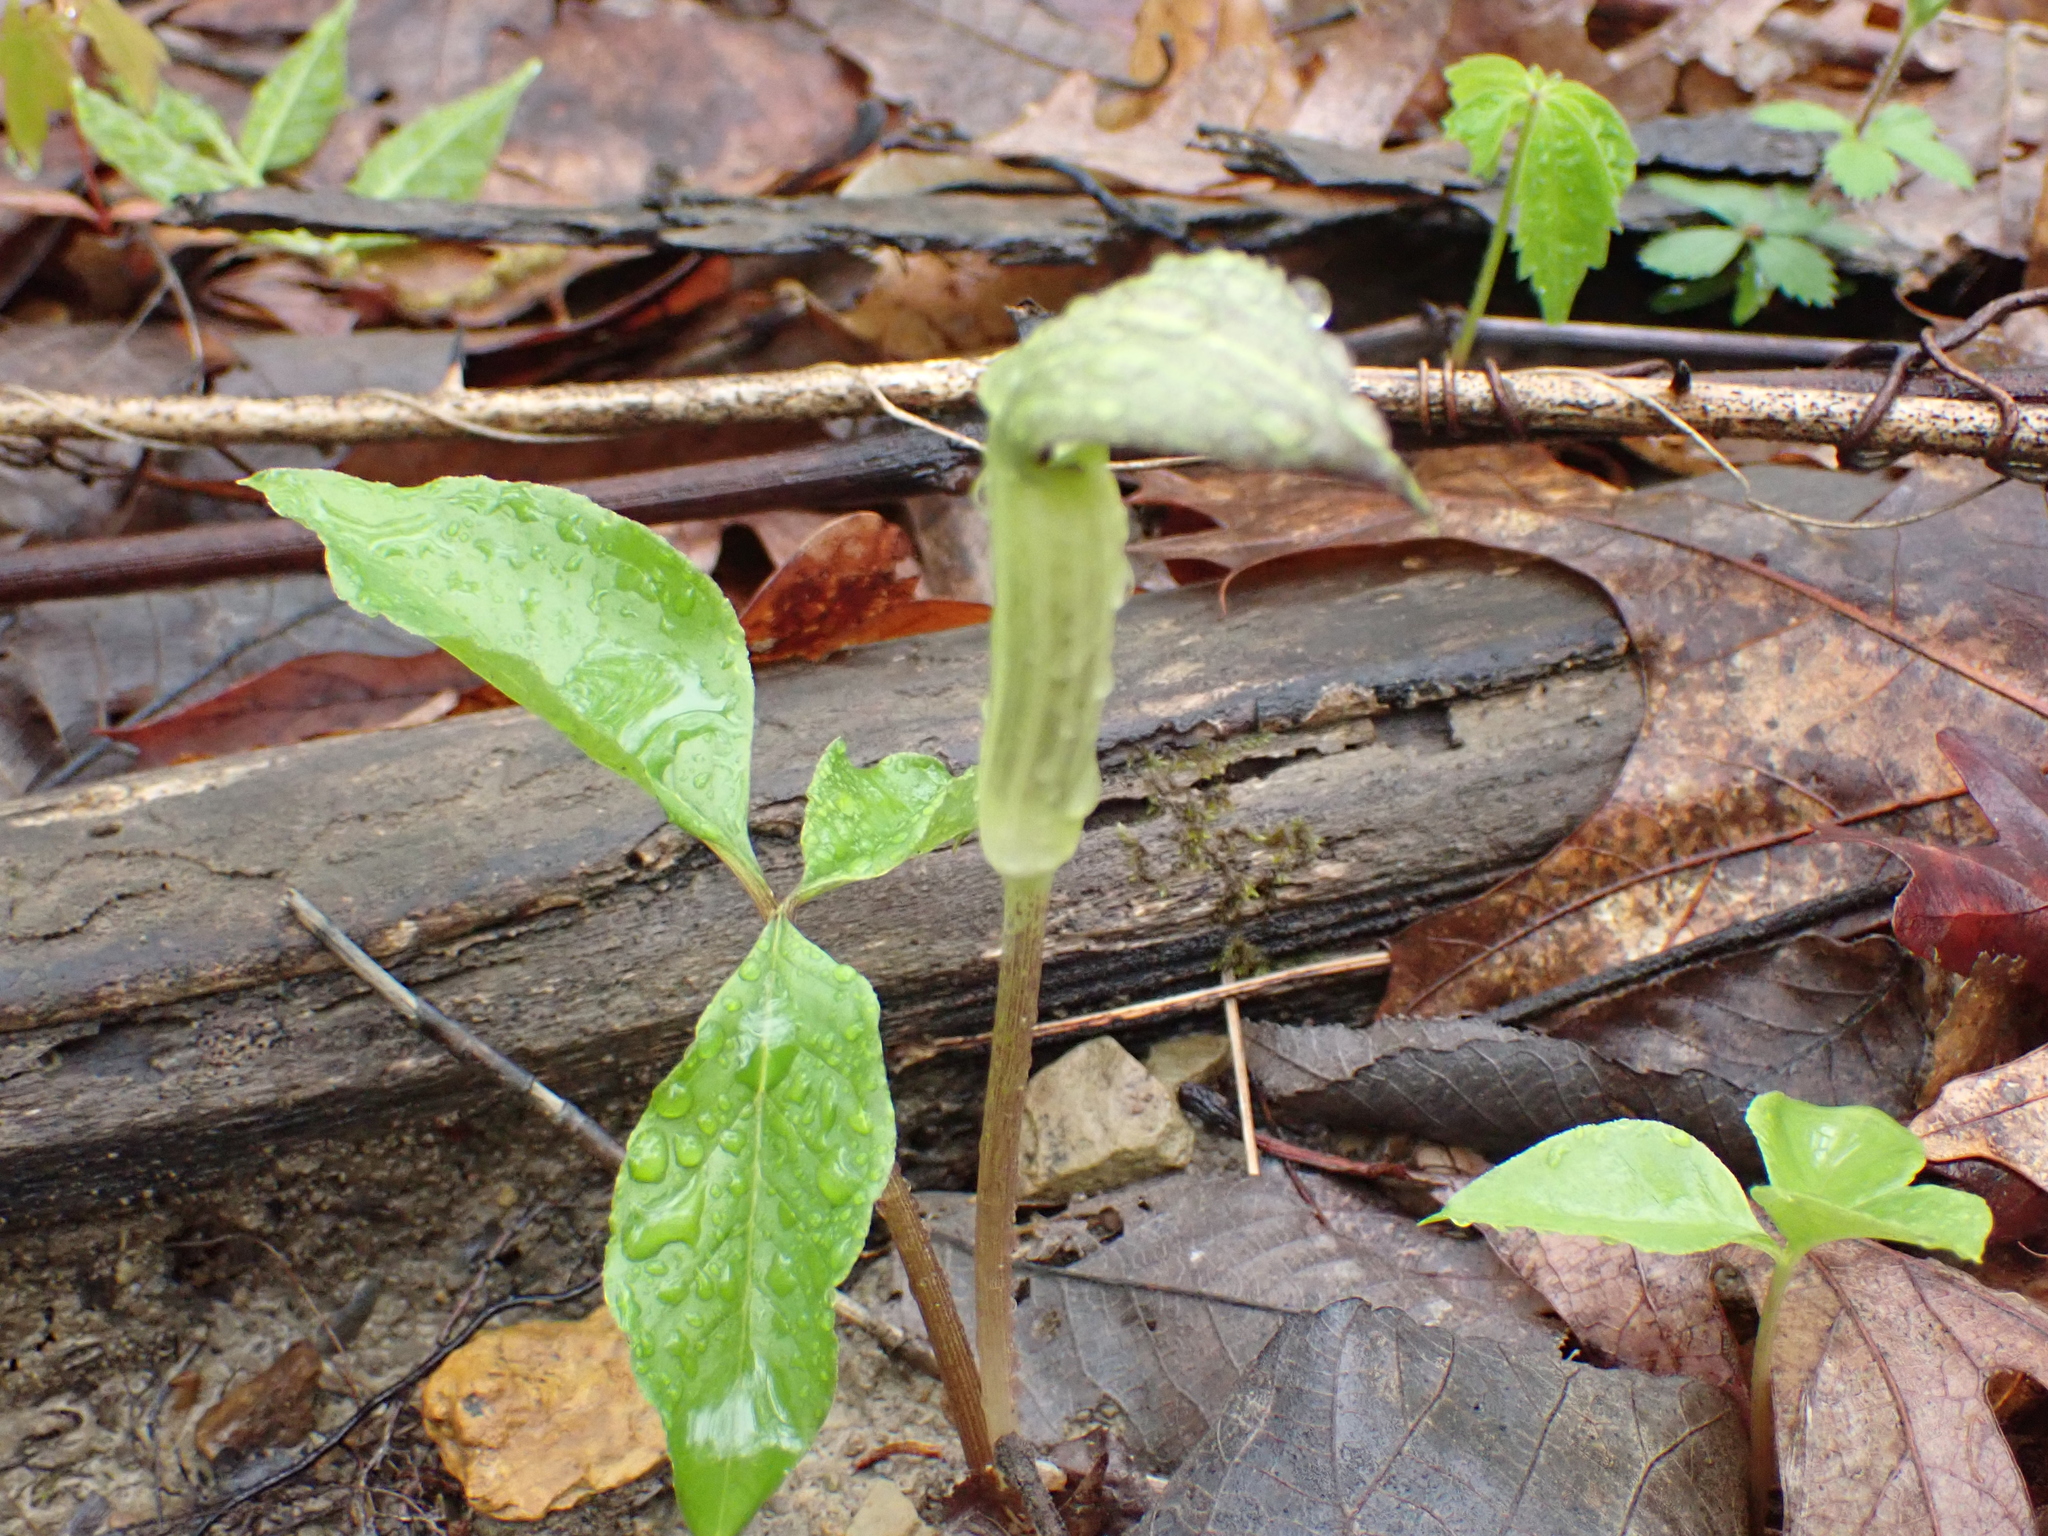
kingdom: Plantae
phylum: Tracheophyta
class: Liliopsida
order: Alismatales
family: Araceae
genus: Arisaema
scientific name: Arisaema triphyllum
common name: Jack-in-the-pulpit
